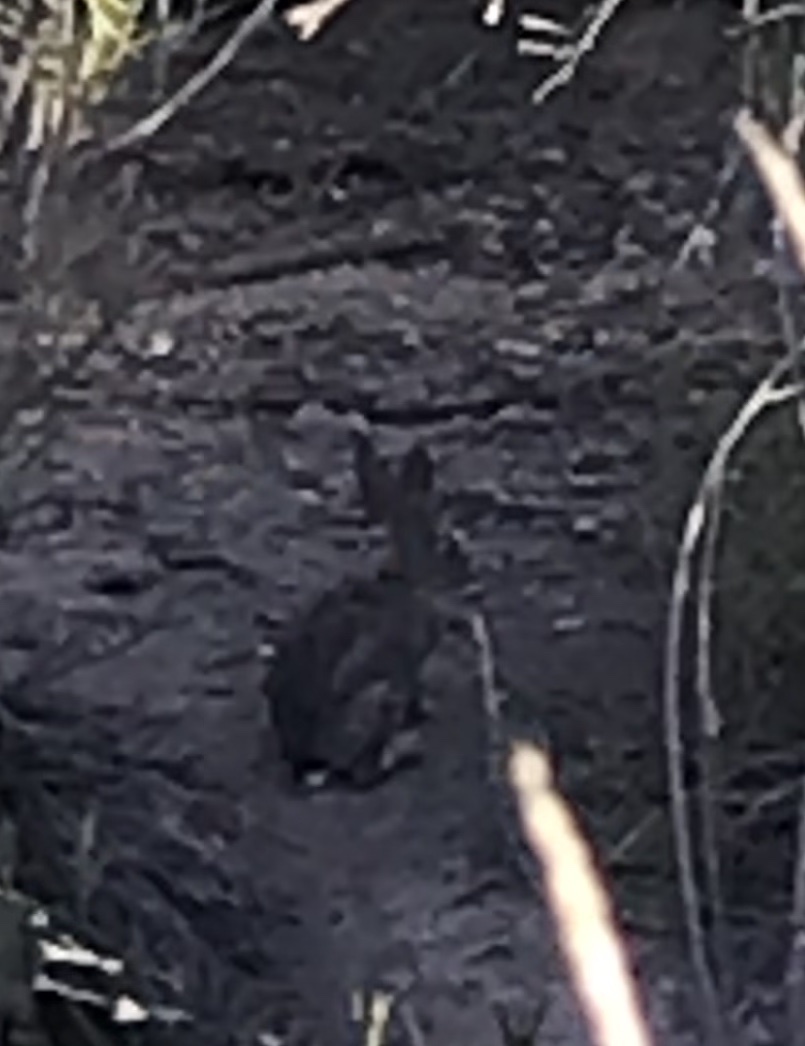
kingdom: Animalia
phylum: Chordata
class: Mammalia
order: Lagomorpha
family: Leporidae
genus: Sylvilagus
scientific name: Sylvilagus audubonii
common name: Desert cottontail
